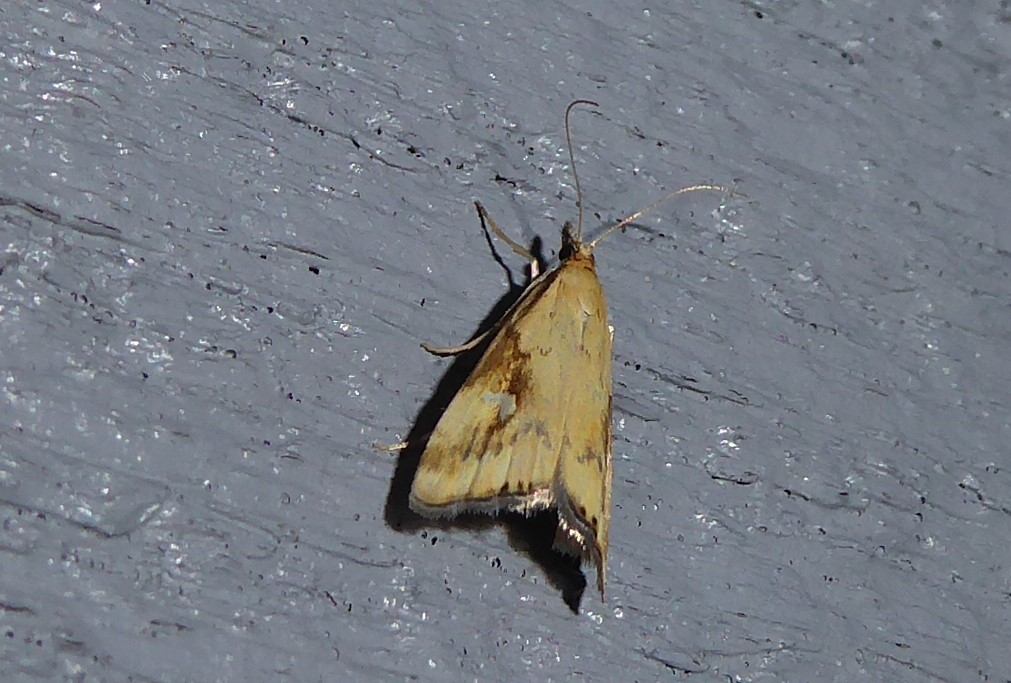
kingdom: Animalia
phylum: Arthropoda
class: Insecta
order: Lepidoptera
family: Crambidae
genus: Glaucocharis
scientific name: Glaucocharis lepidella
